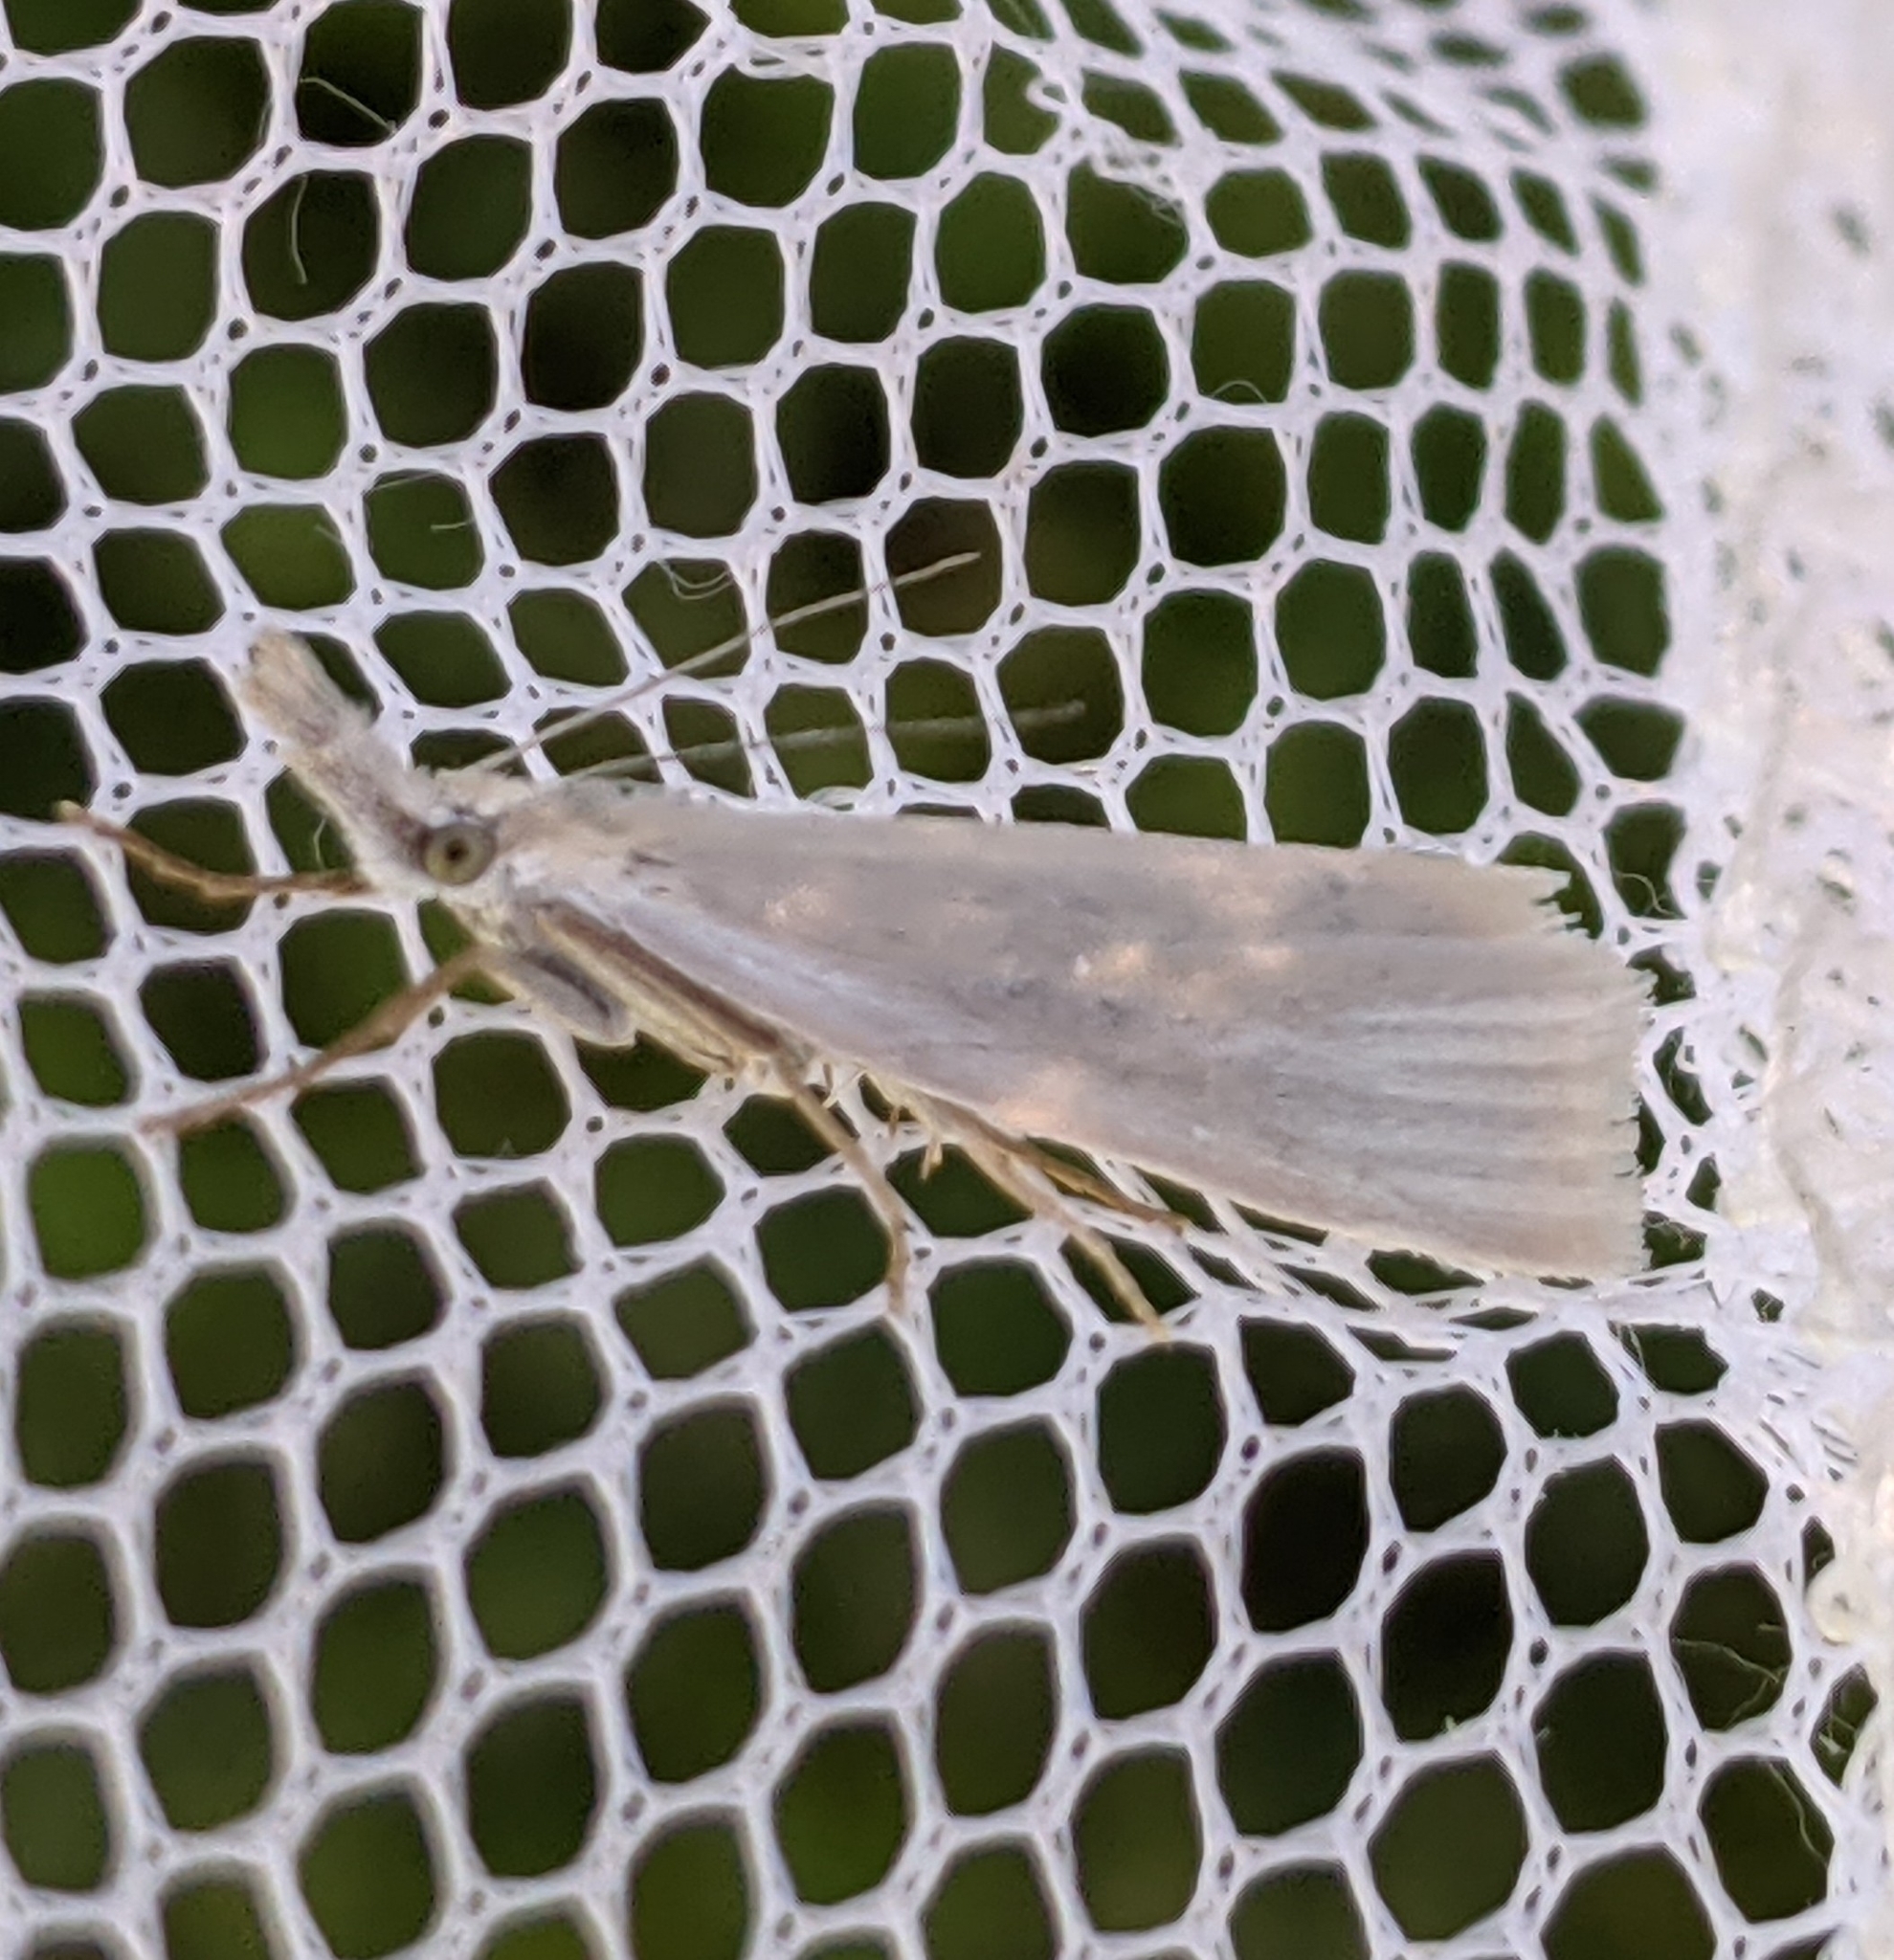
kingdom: Animalia
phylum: Arthropoda
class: Insecta
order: Lepidoptera
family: Crambidae
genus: Crambus
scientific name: Crambus perlellus
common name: Yellow satin veneer
